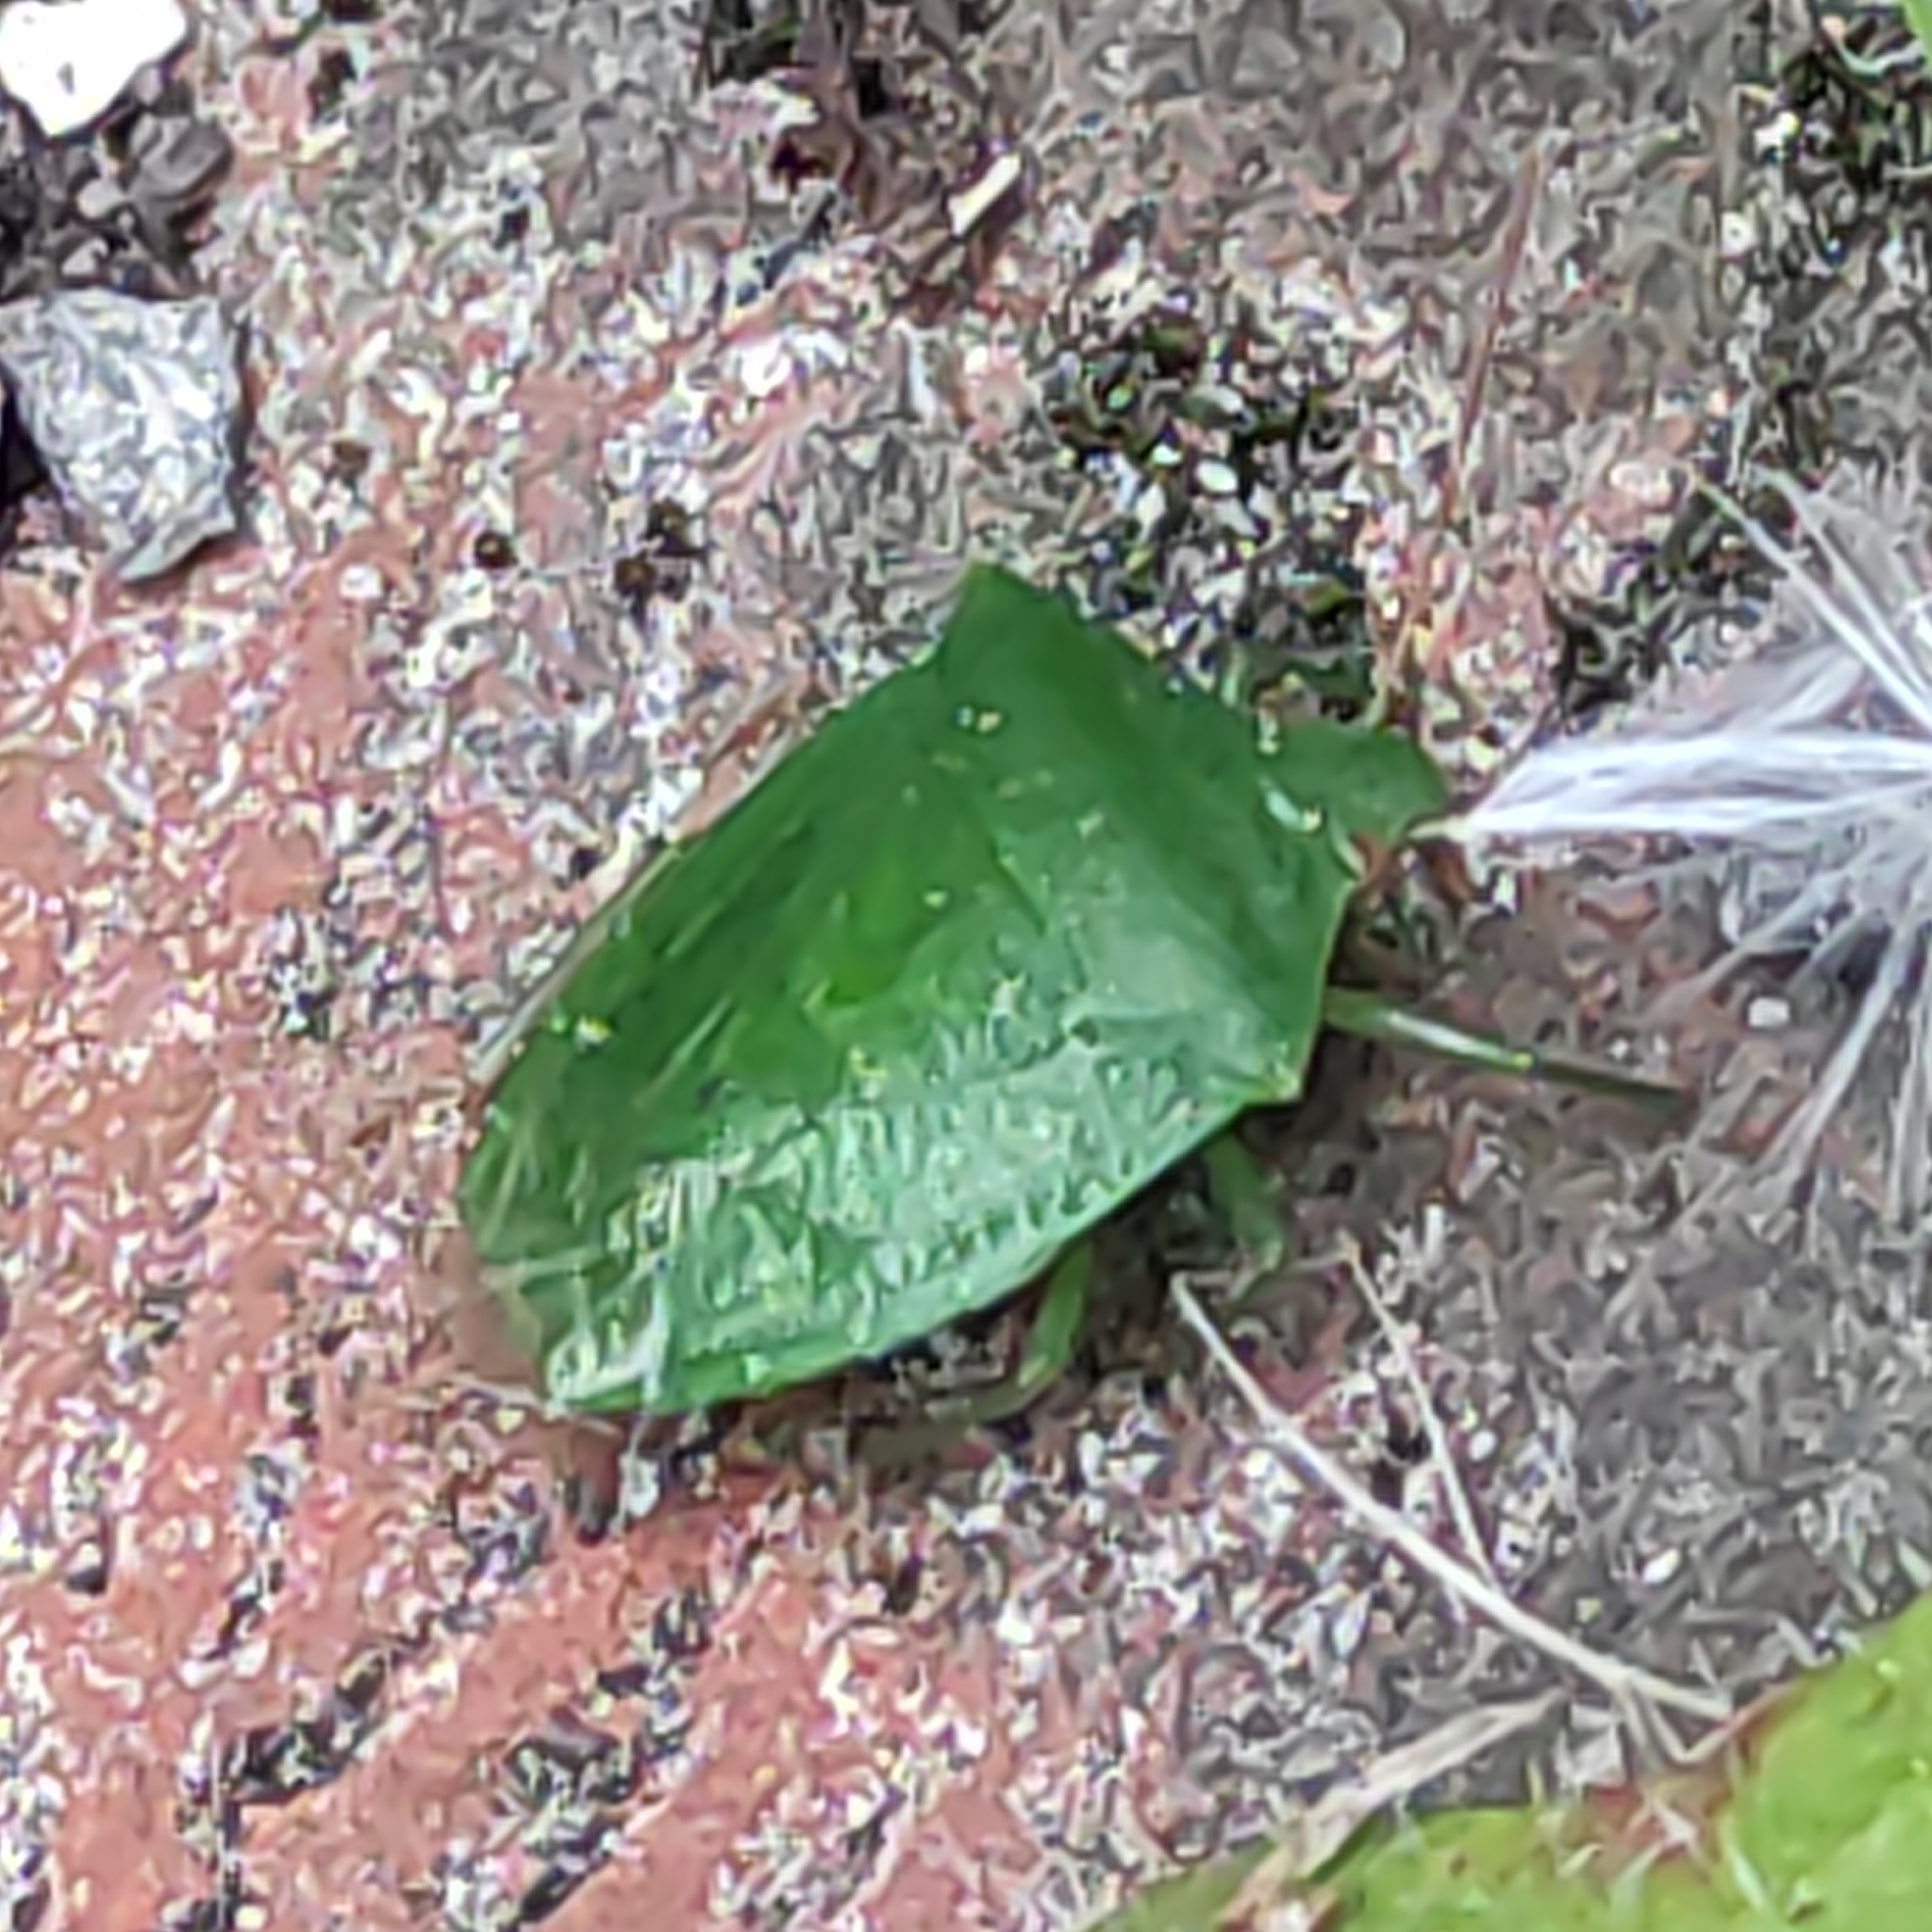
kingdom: Animalia
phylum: Arthropoda
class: Insecta
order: Hemiptera
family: Pentatomidae
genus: Cuspicona
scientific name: Cuspicona simplex
